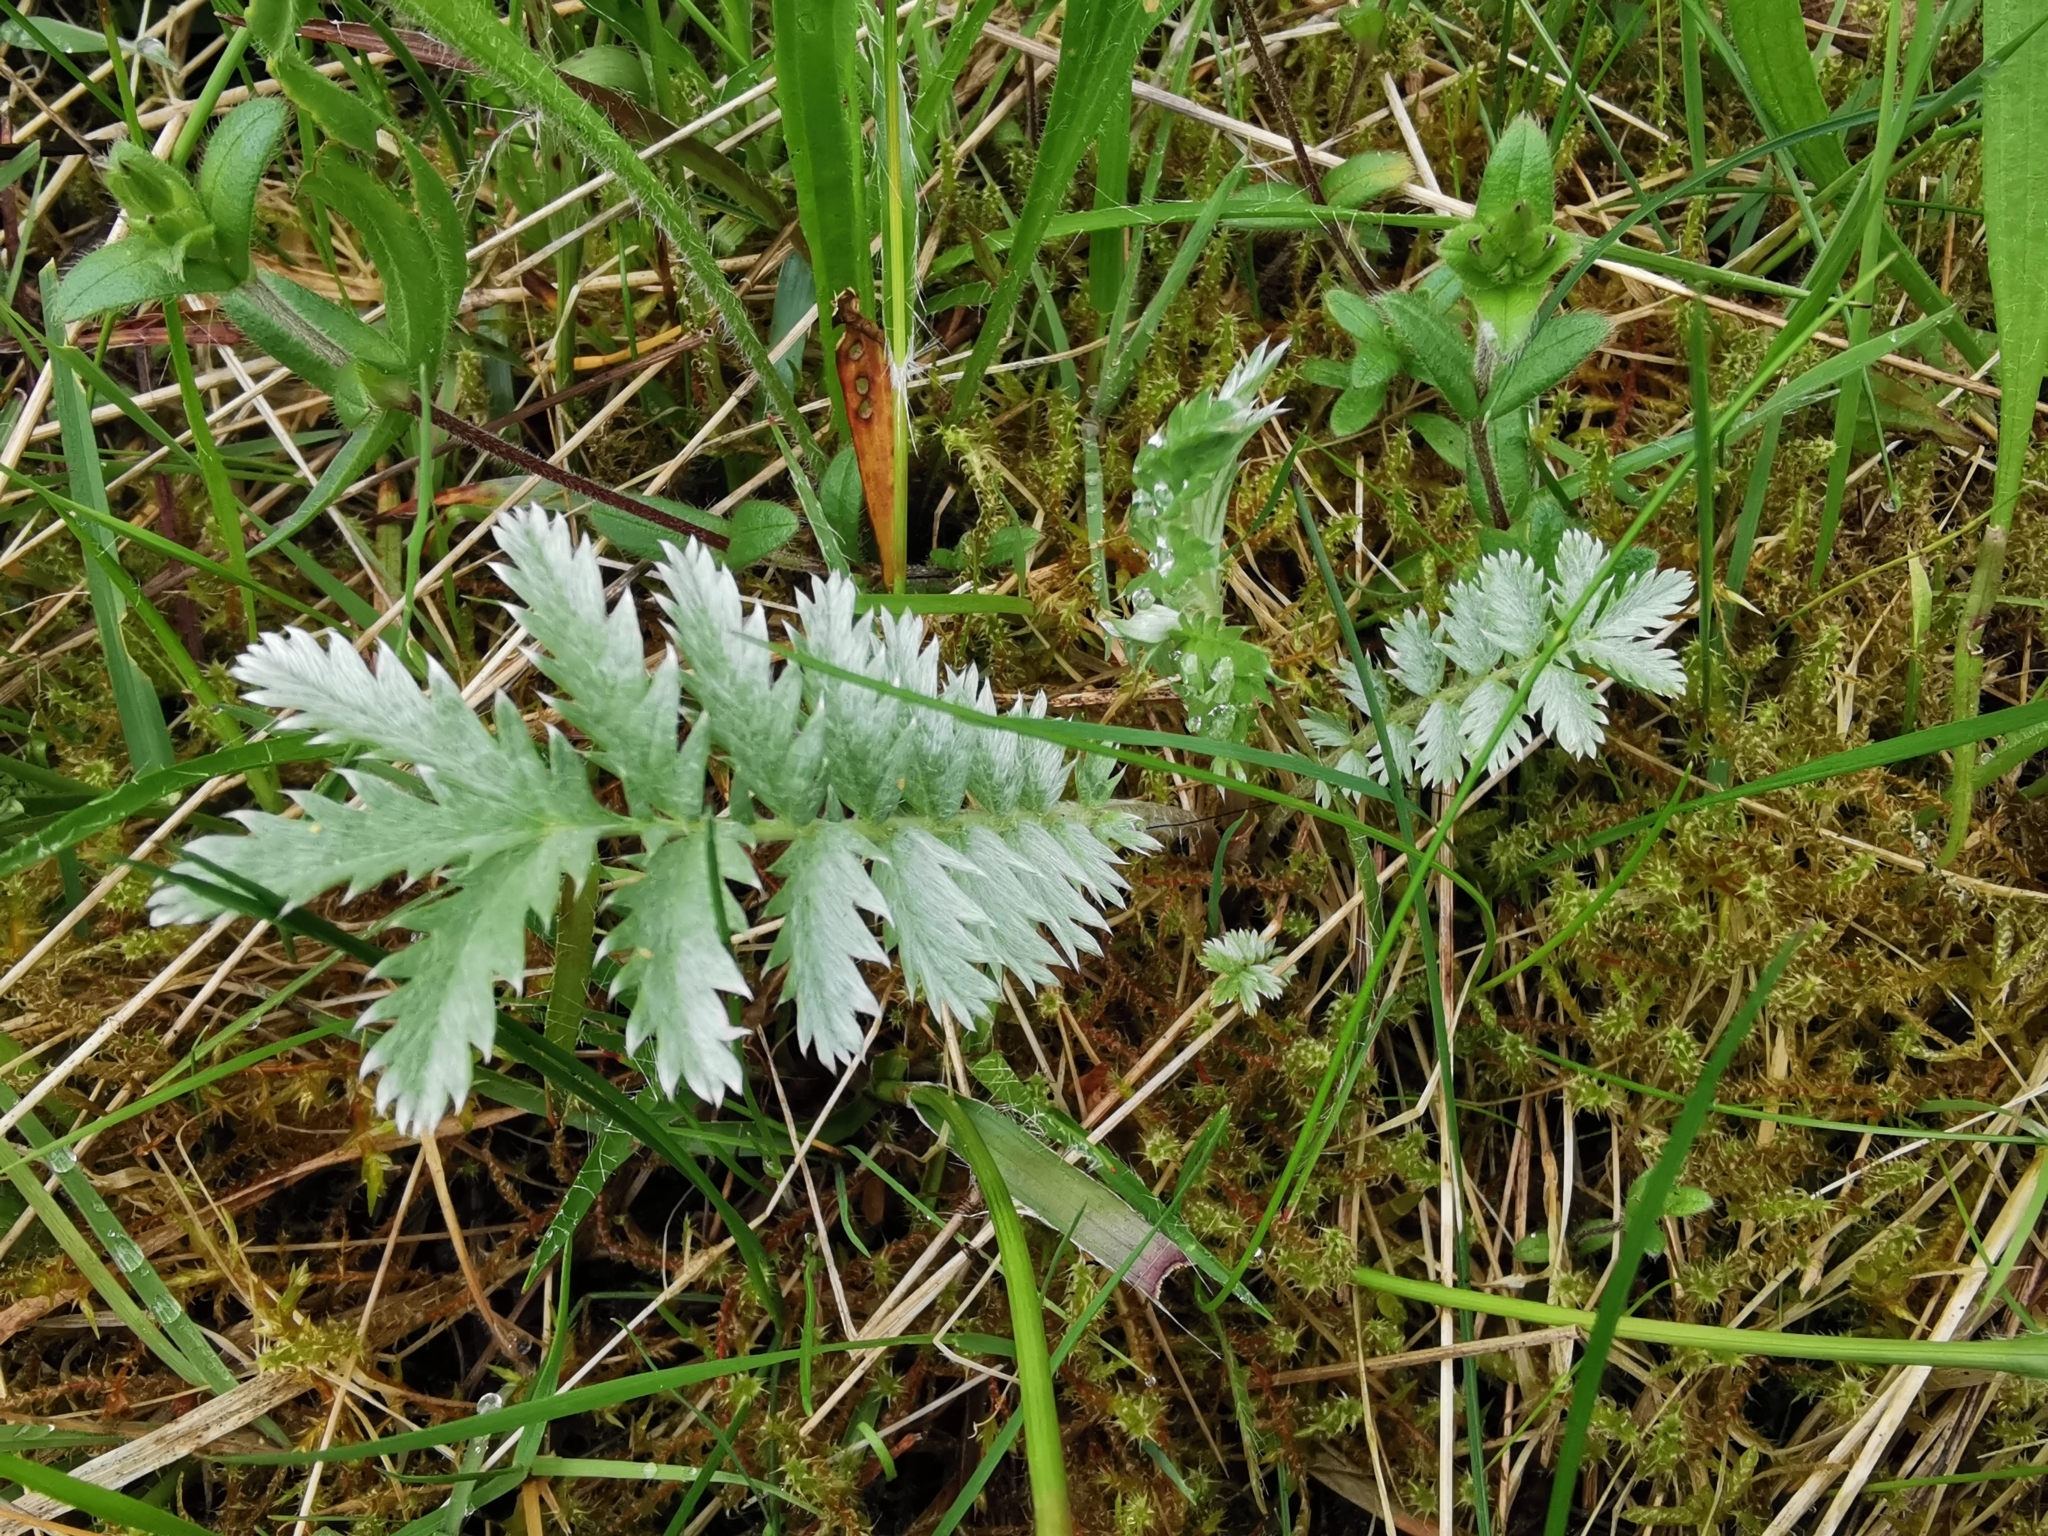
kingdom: Plantae
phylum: Tracheophyta
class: Magnoliopsida
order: Rosales
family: Rosaceae
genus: Argentina
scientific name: Argentina anserina
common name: Common silverweed
